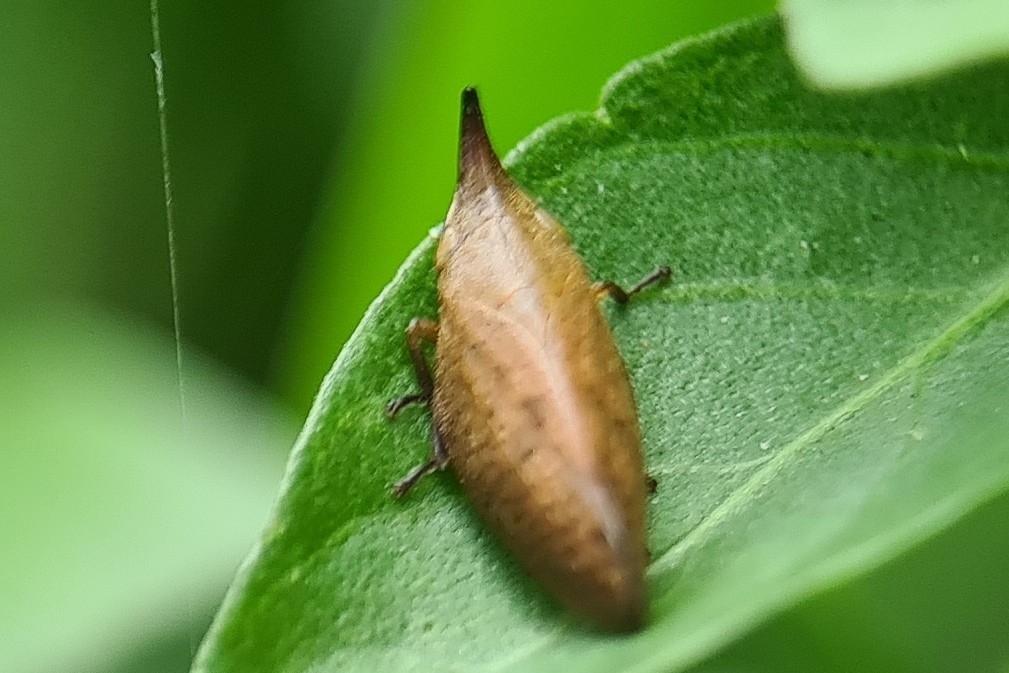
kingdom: Animalia
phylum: Arthropoda
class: Insecta
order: Hemiptera
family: Aphrophoridae
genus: Philagra
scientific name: Philagra parva
